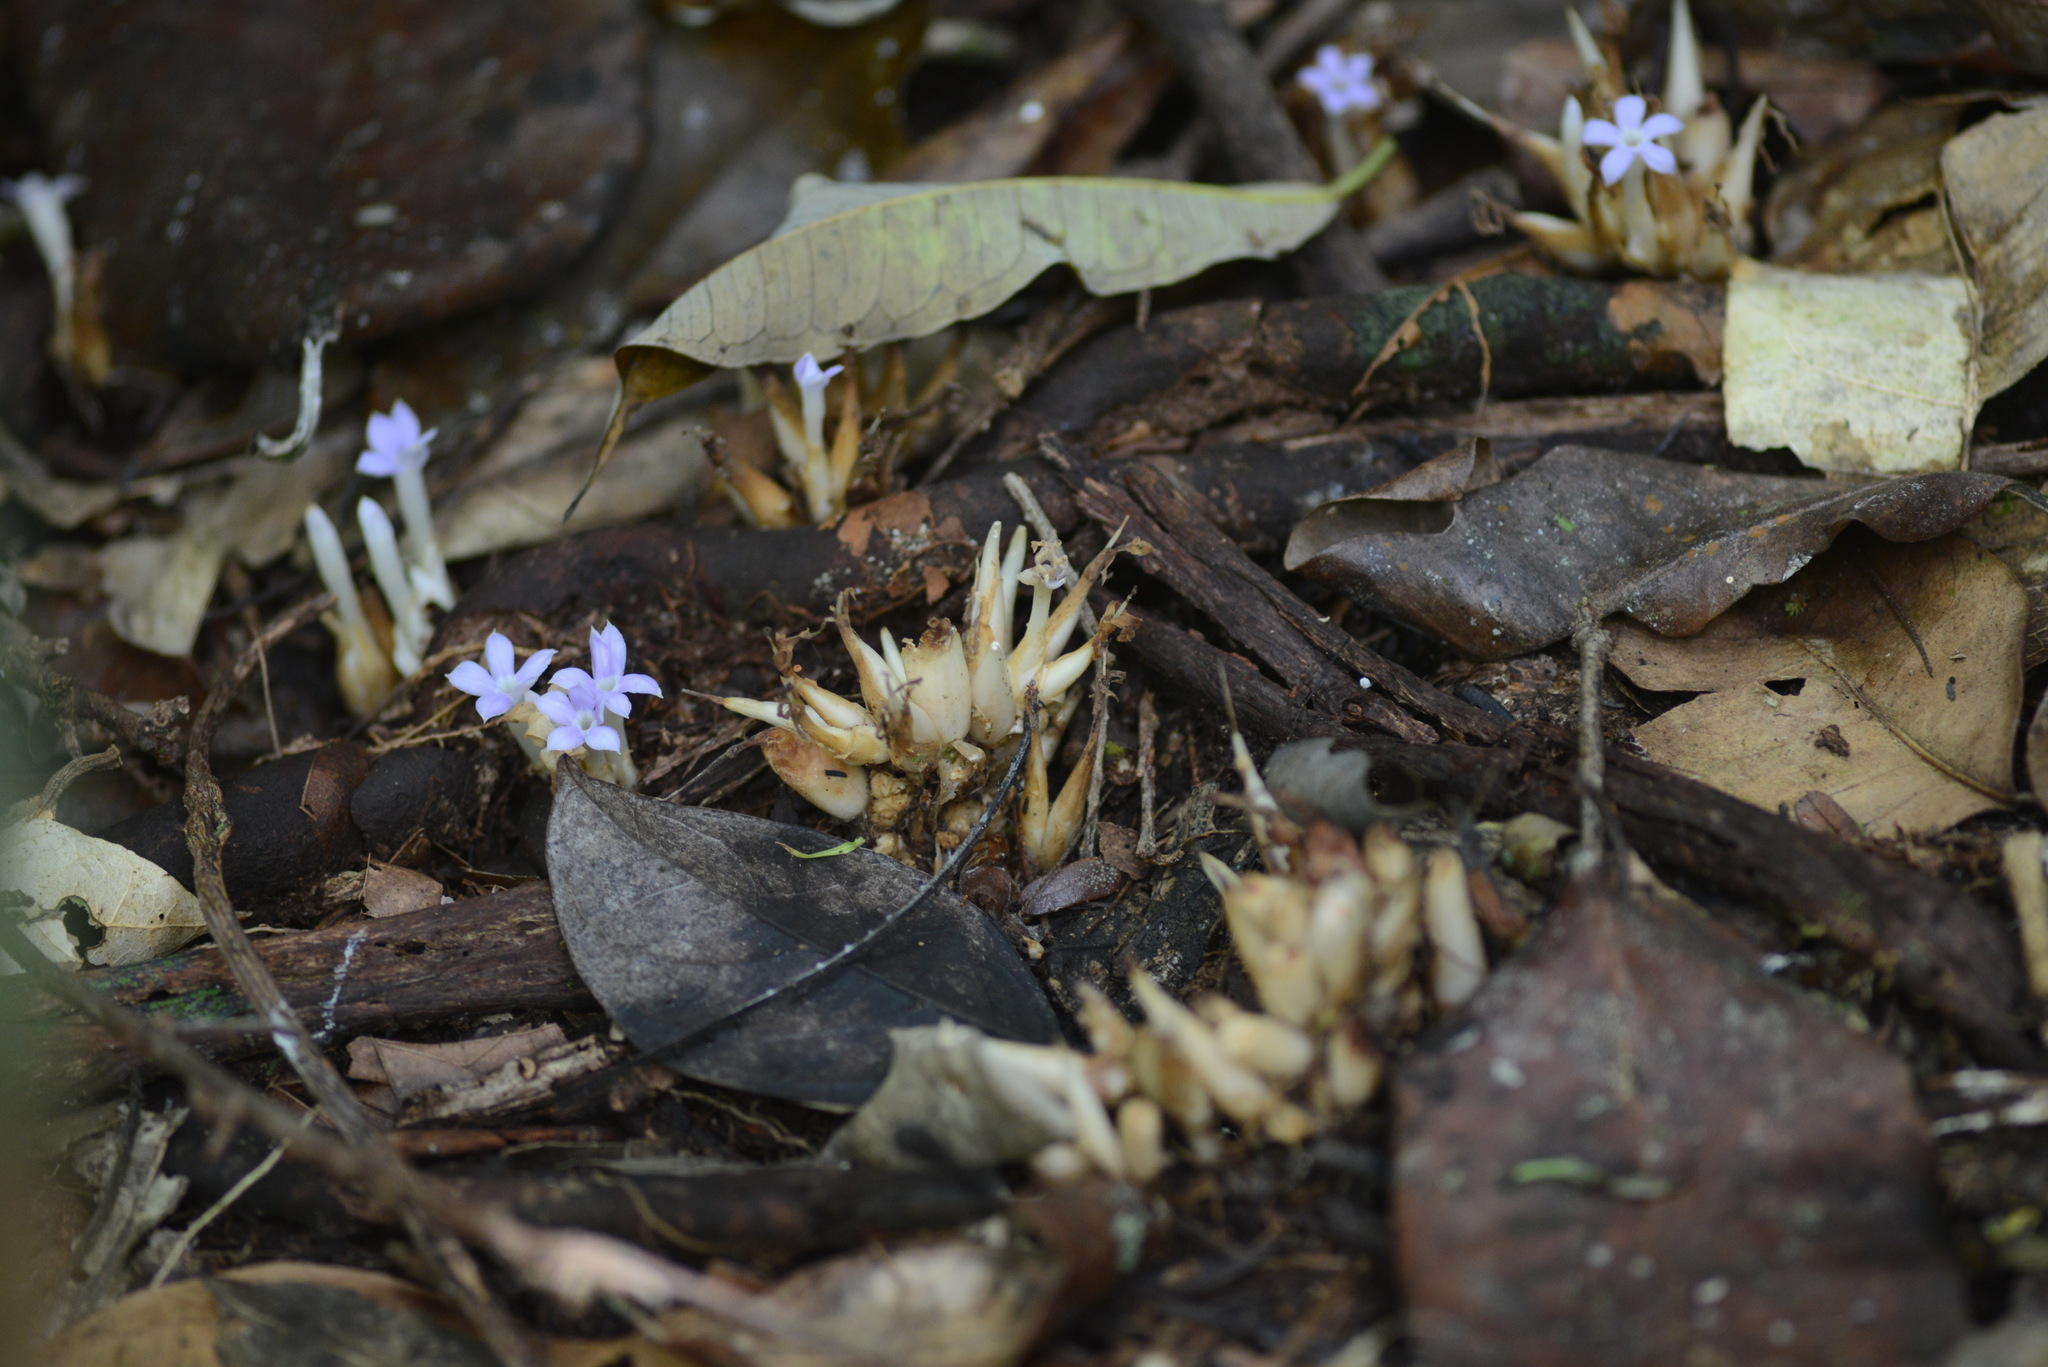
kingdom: Plantae
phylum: Tracheophyta
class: Magnoliopsida
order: Gentianales
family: Gentianaceae
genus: Voyria
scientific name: Voyria caerulea
